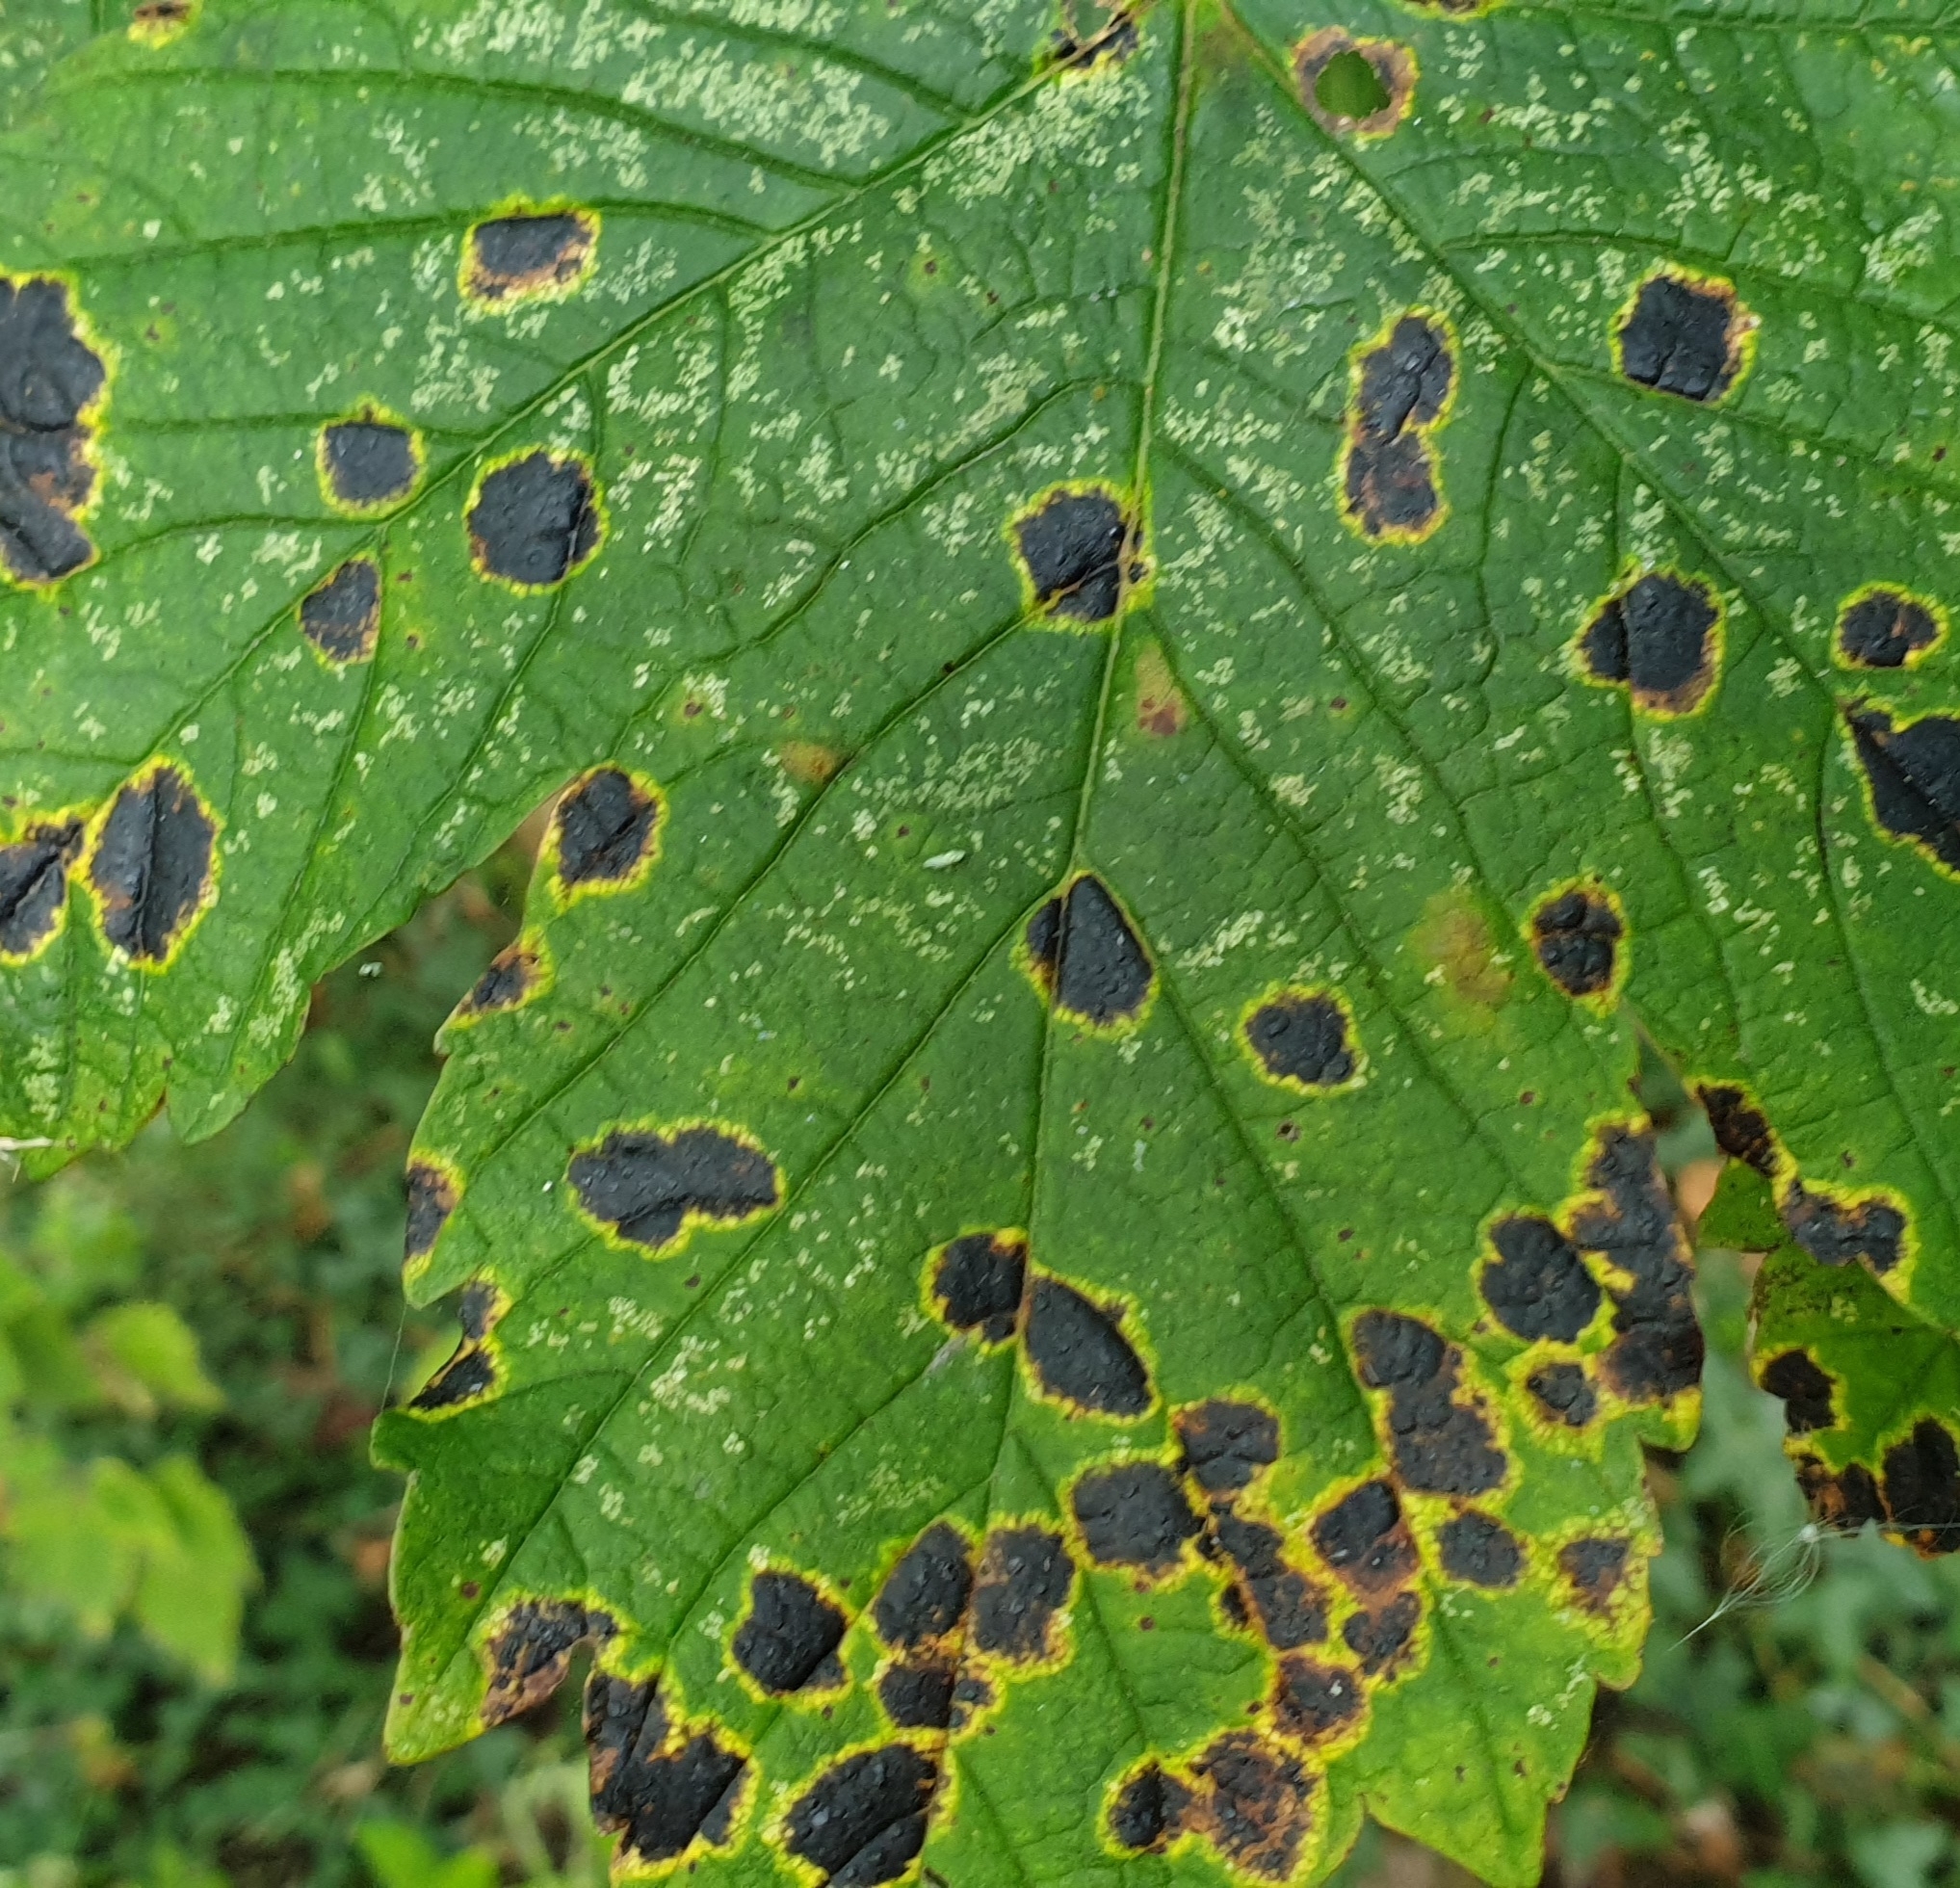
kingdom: Fungi
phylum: Ascomycota
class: Leotiomycetes
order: Rhytismatales
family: Rhytismataceae
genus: Rhytisma
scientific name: Rhytisma acerinum
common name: European tar spot
